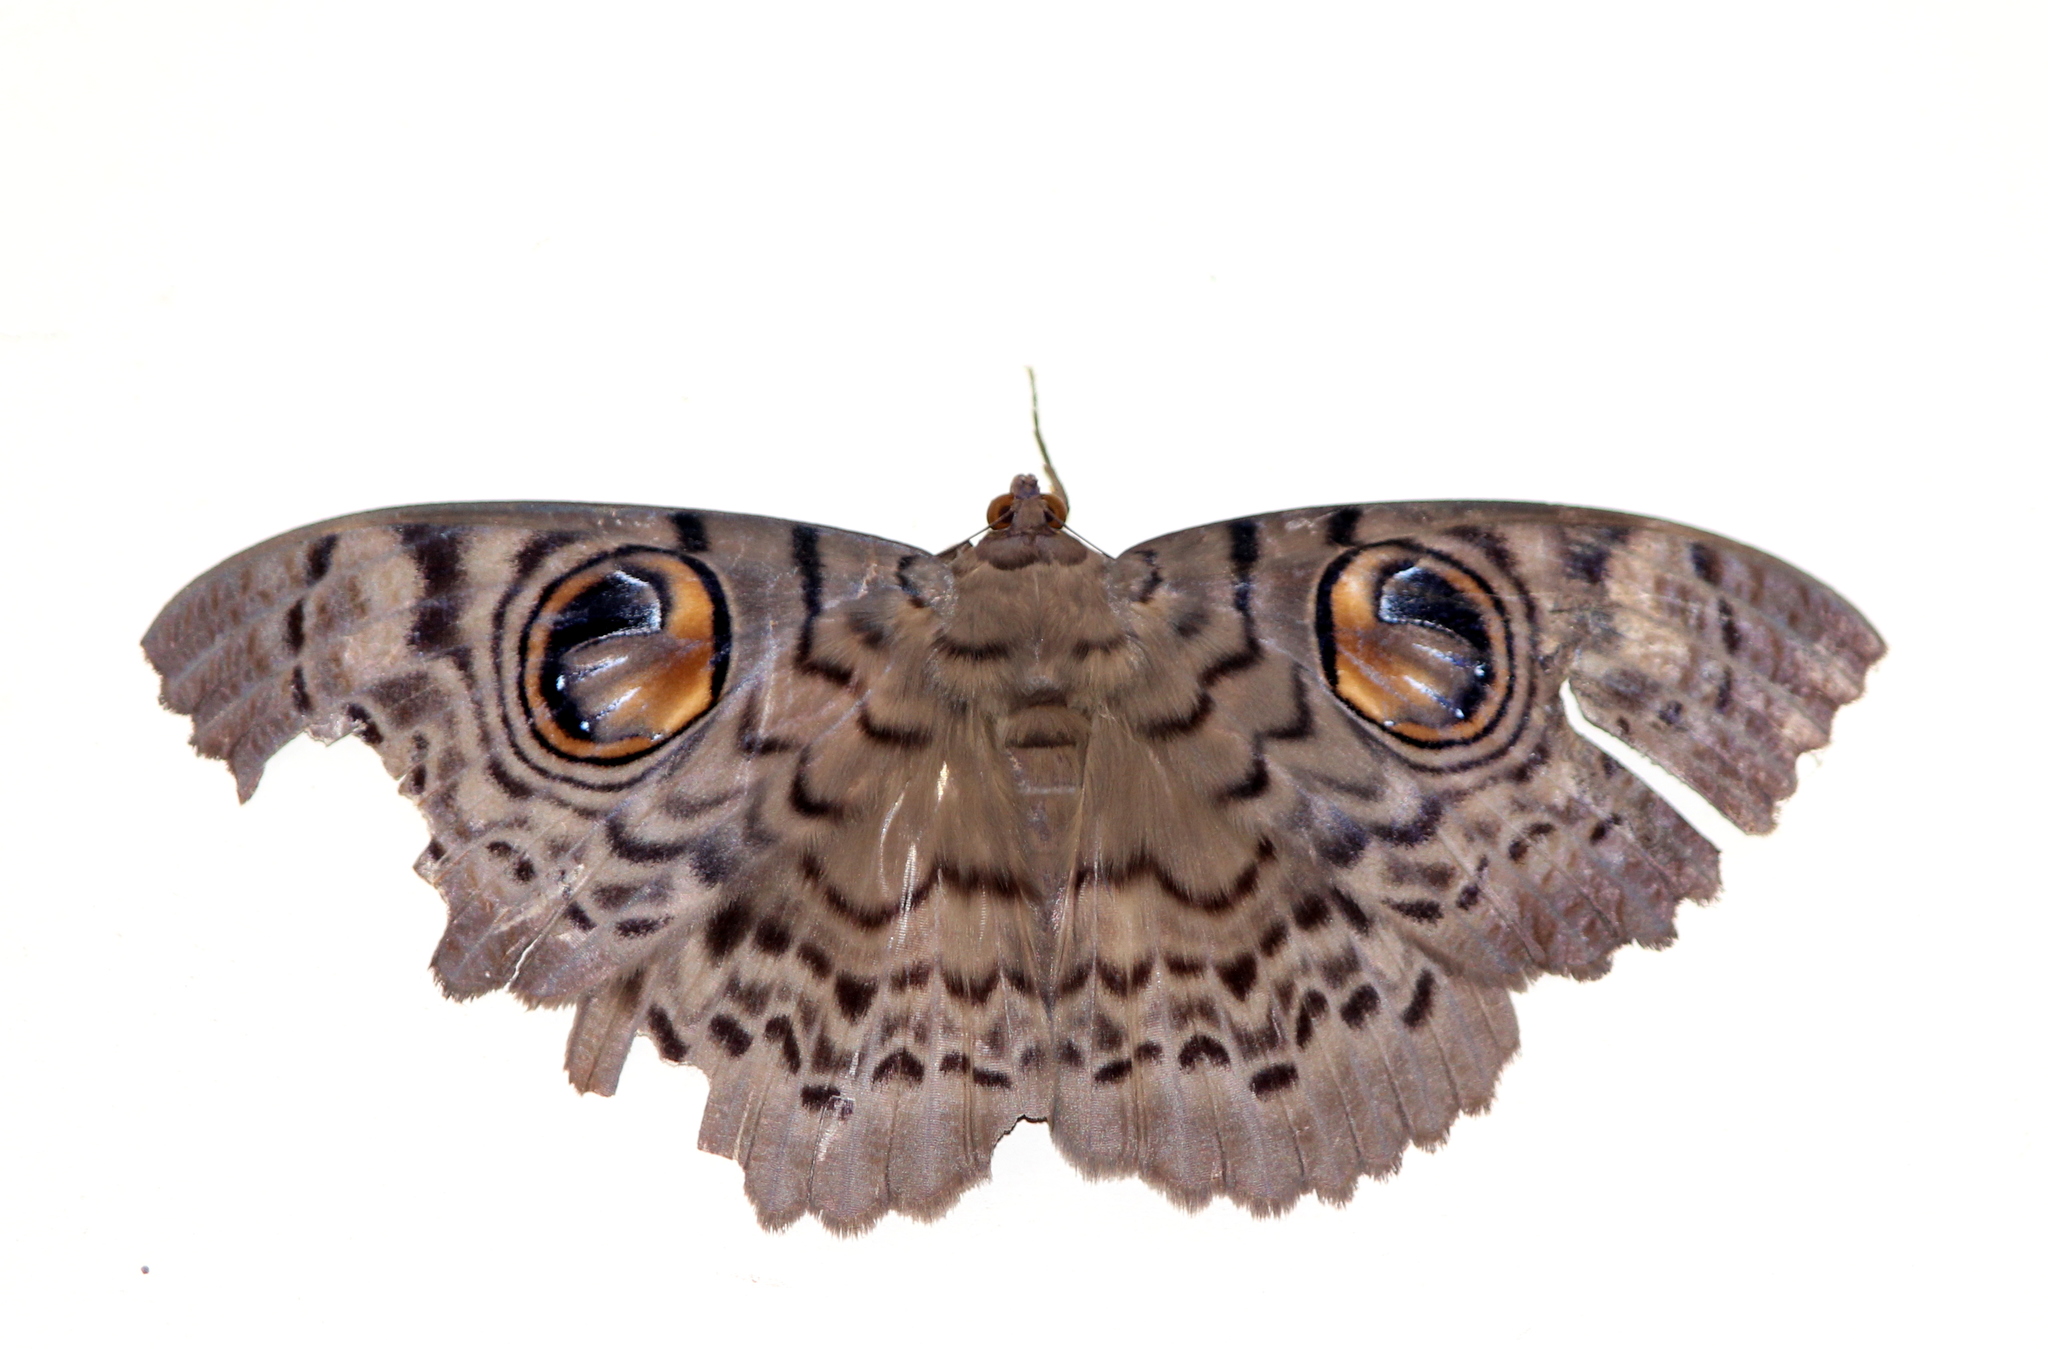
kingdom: Animalia
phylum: Arthropoda
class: Insecta
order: Lepidoptera
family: Erebidae
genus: Erebus
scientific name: Erebus macrops
